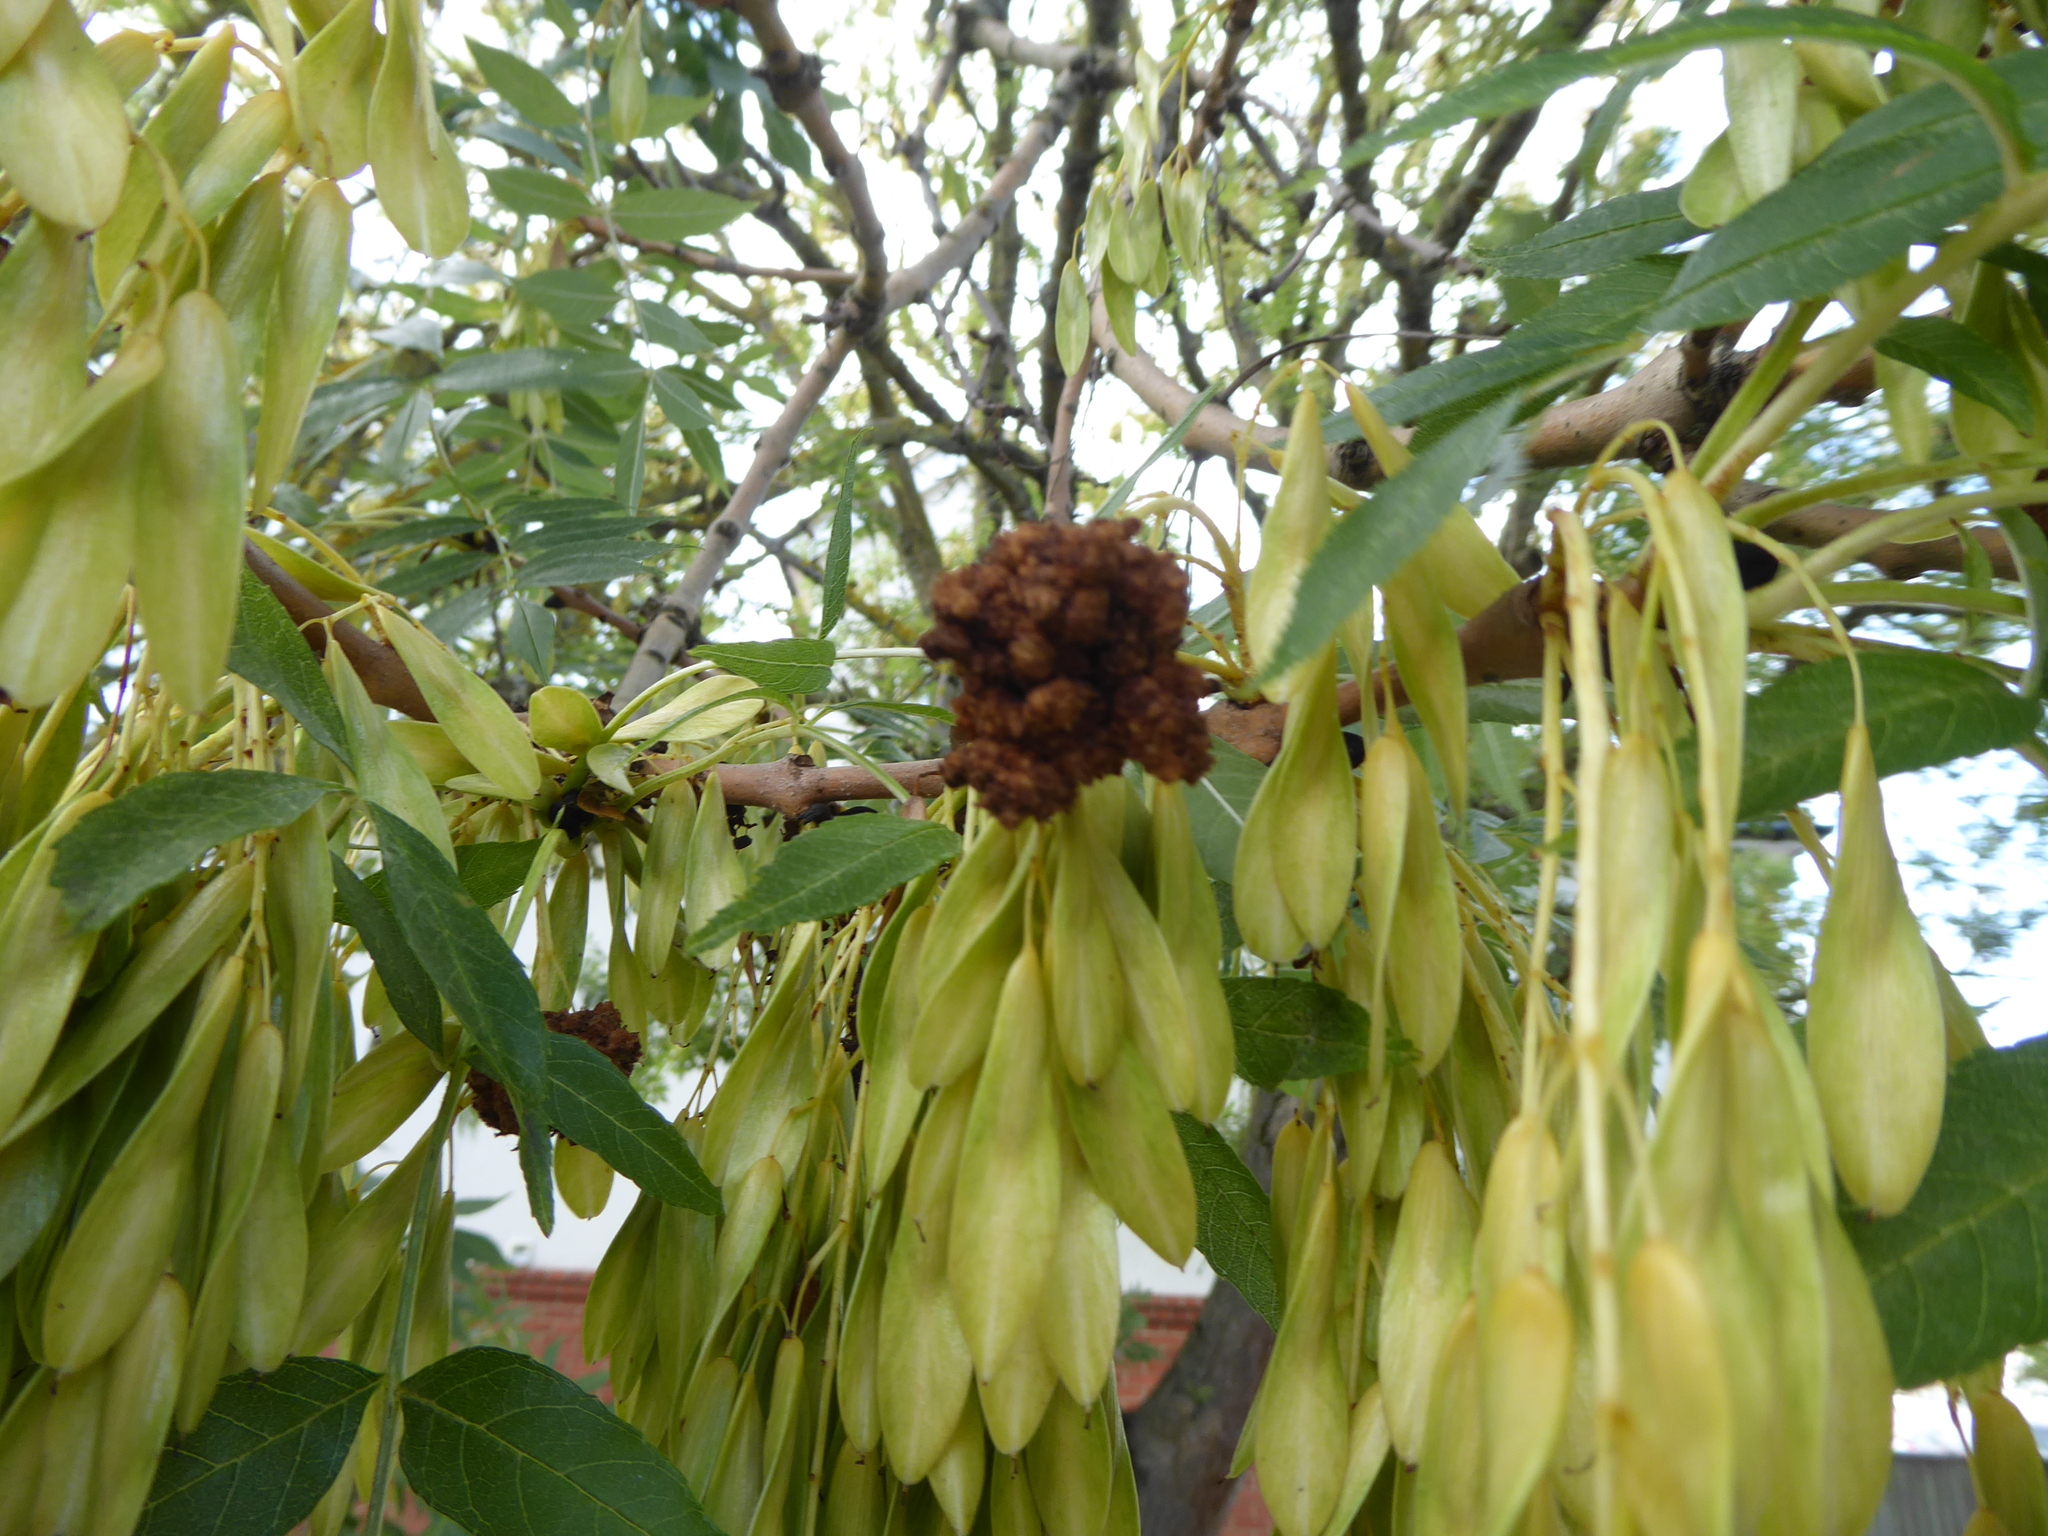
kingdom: Animalia
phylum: Arthropoda
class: Arachnida
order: Trombidiformes
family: Eriophyidae
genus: Aceria
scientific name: Aceria fraxinivora
